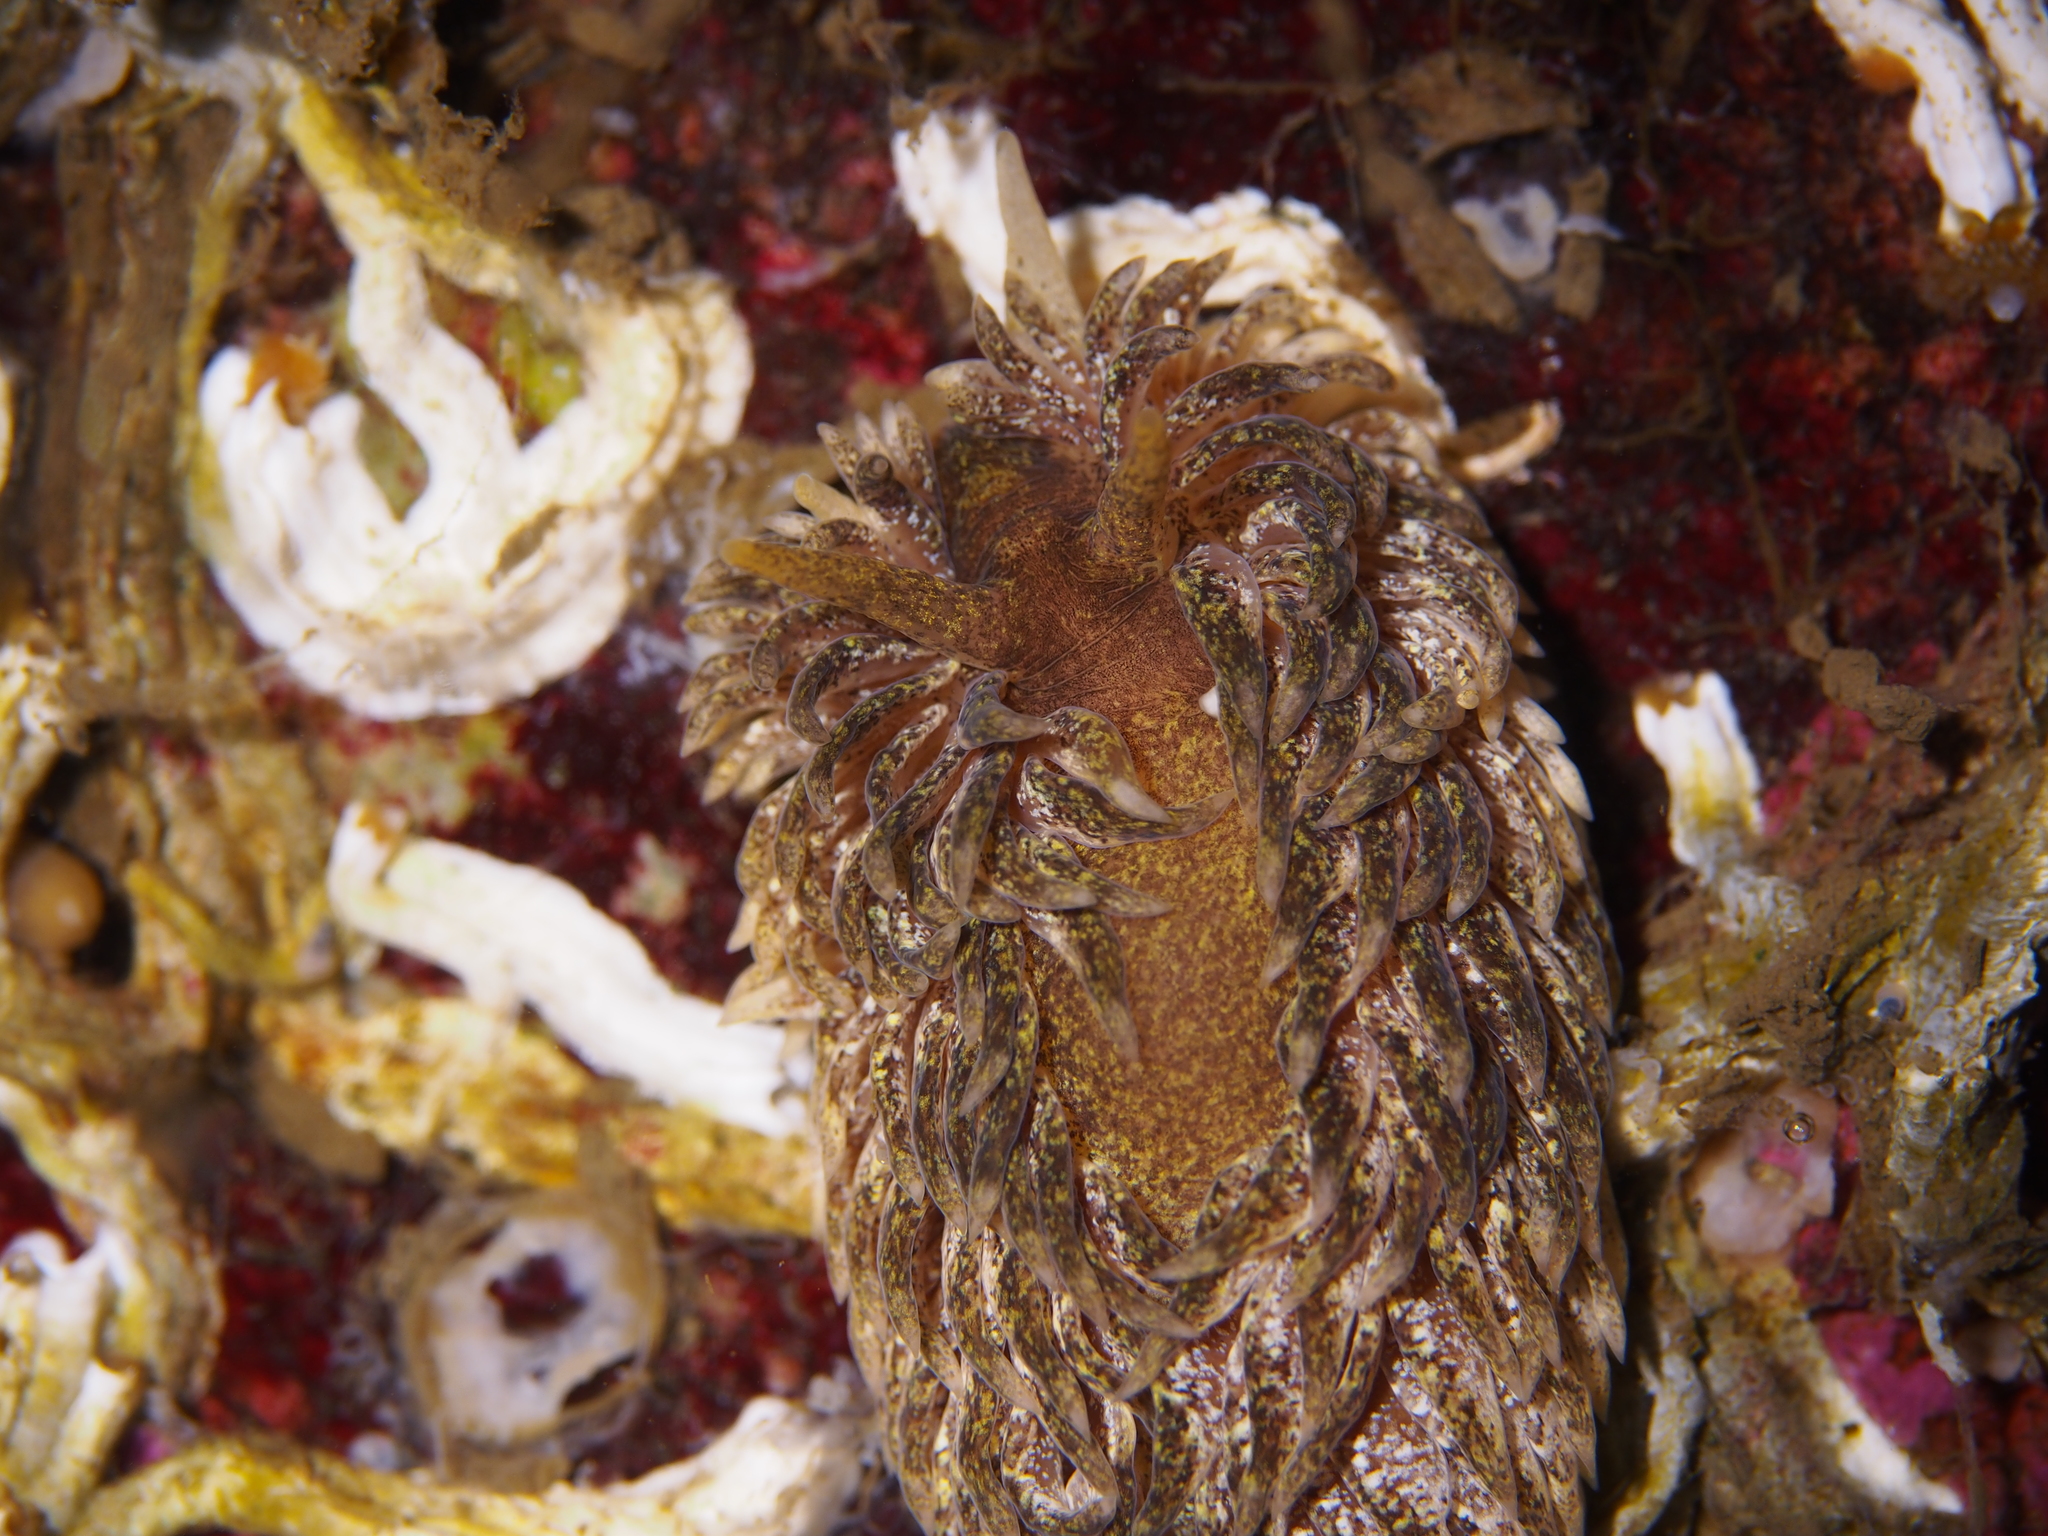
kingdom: Animalia
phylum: Mollusca
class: Gastropoda
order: Nudibranchia
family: Aeolidiidae
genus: Aeolidia
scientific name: Aeolidia papillosa
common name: Common grey sea slug
